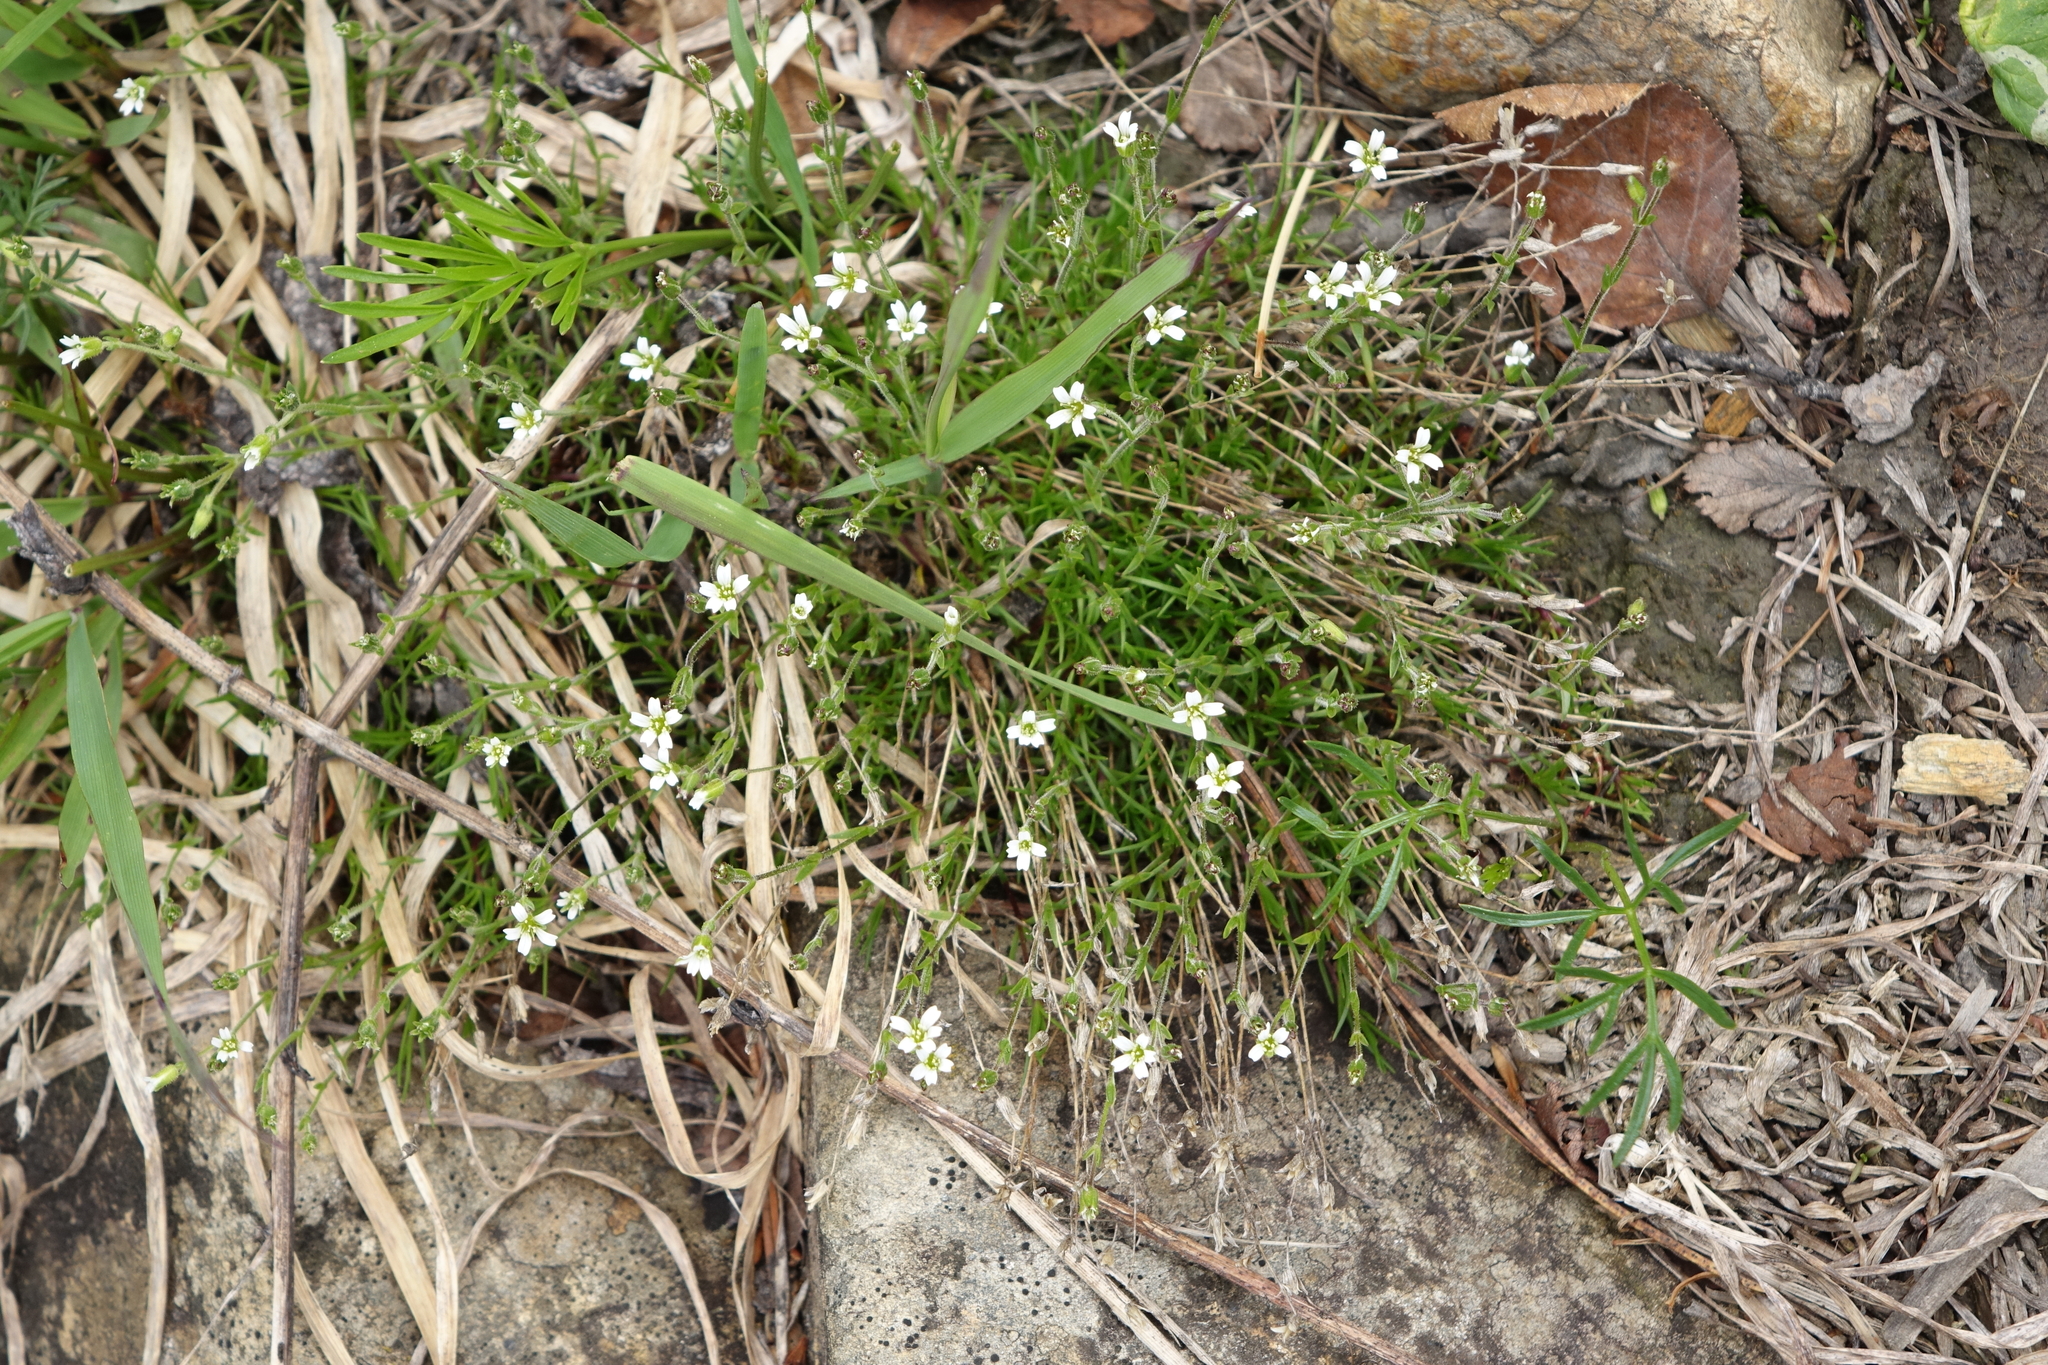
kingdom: Plantae
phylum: Tracheophyta
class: Magnoliopsida
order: Caryophyllales
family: Caryophyllaceae
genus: Cherleria
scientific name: Cherleria biflora
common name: Mountain sandwort
